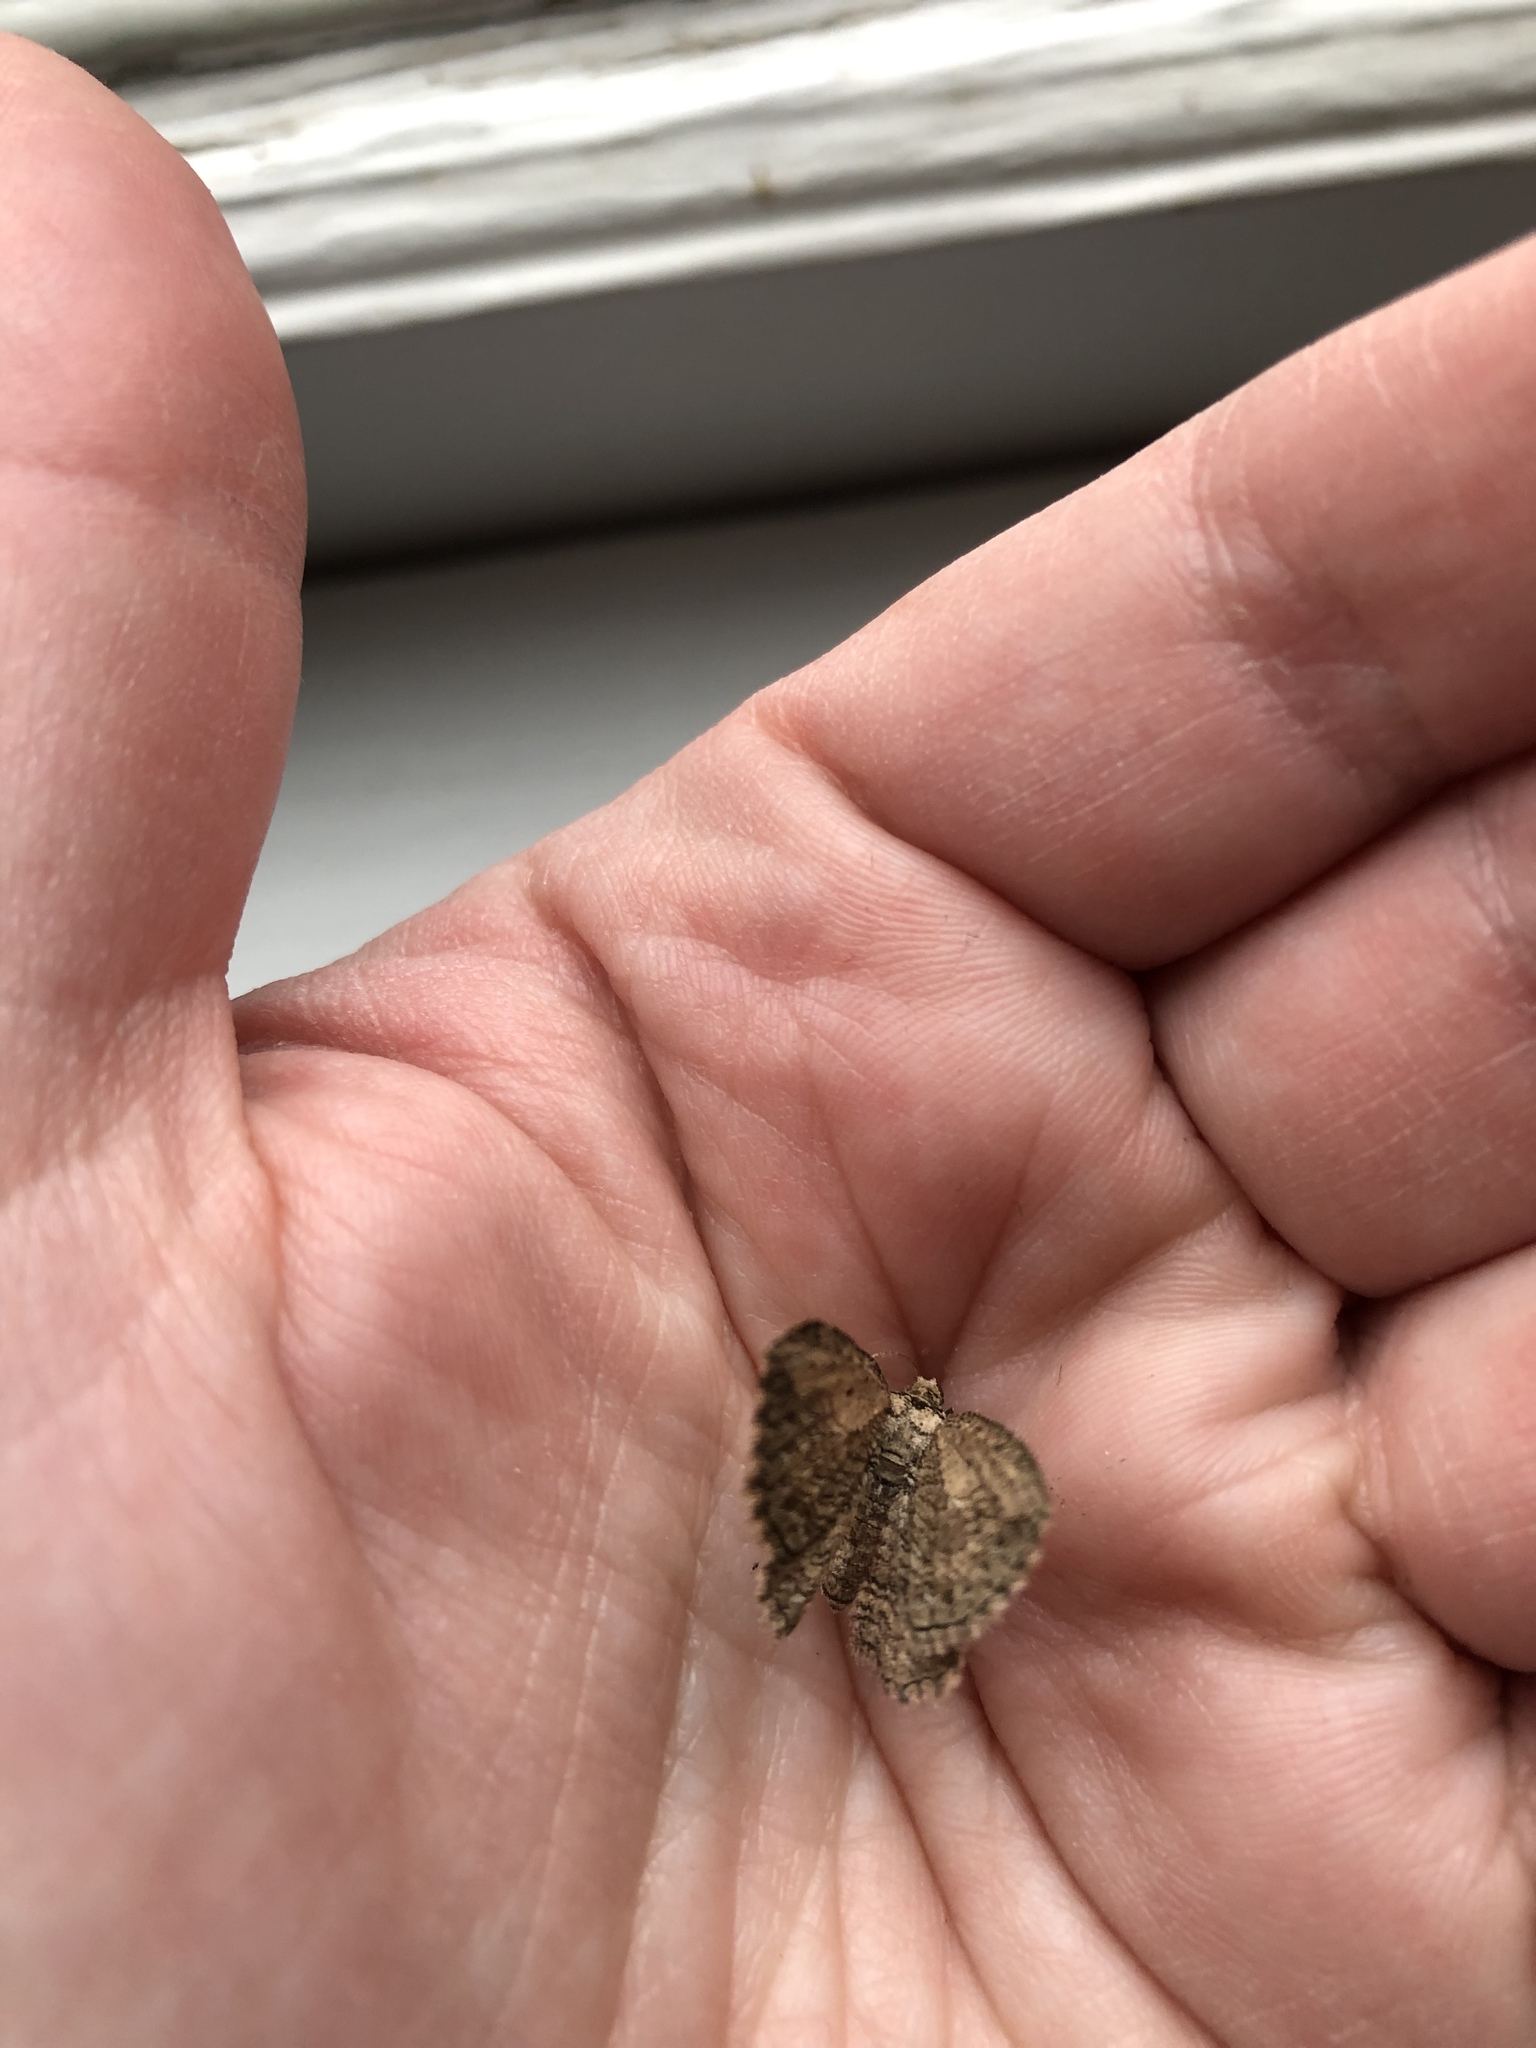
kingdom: Animalia
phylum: Arthropoda
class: Insecta
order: Lepidoptera
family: Geometridae
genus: Horisme
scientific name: Horisme intestinata
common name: Brown bark carpet
